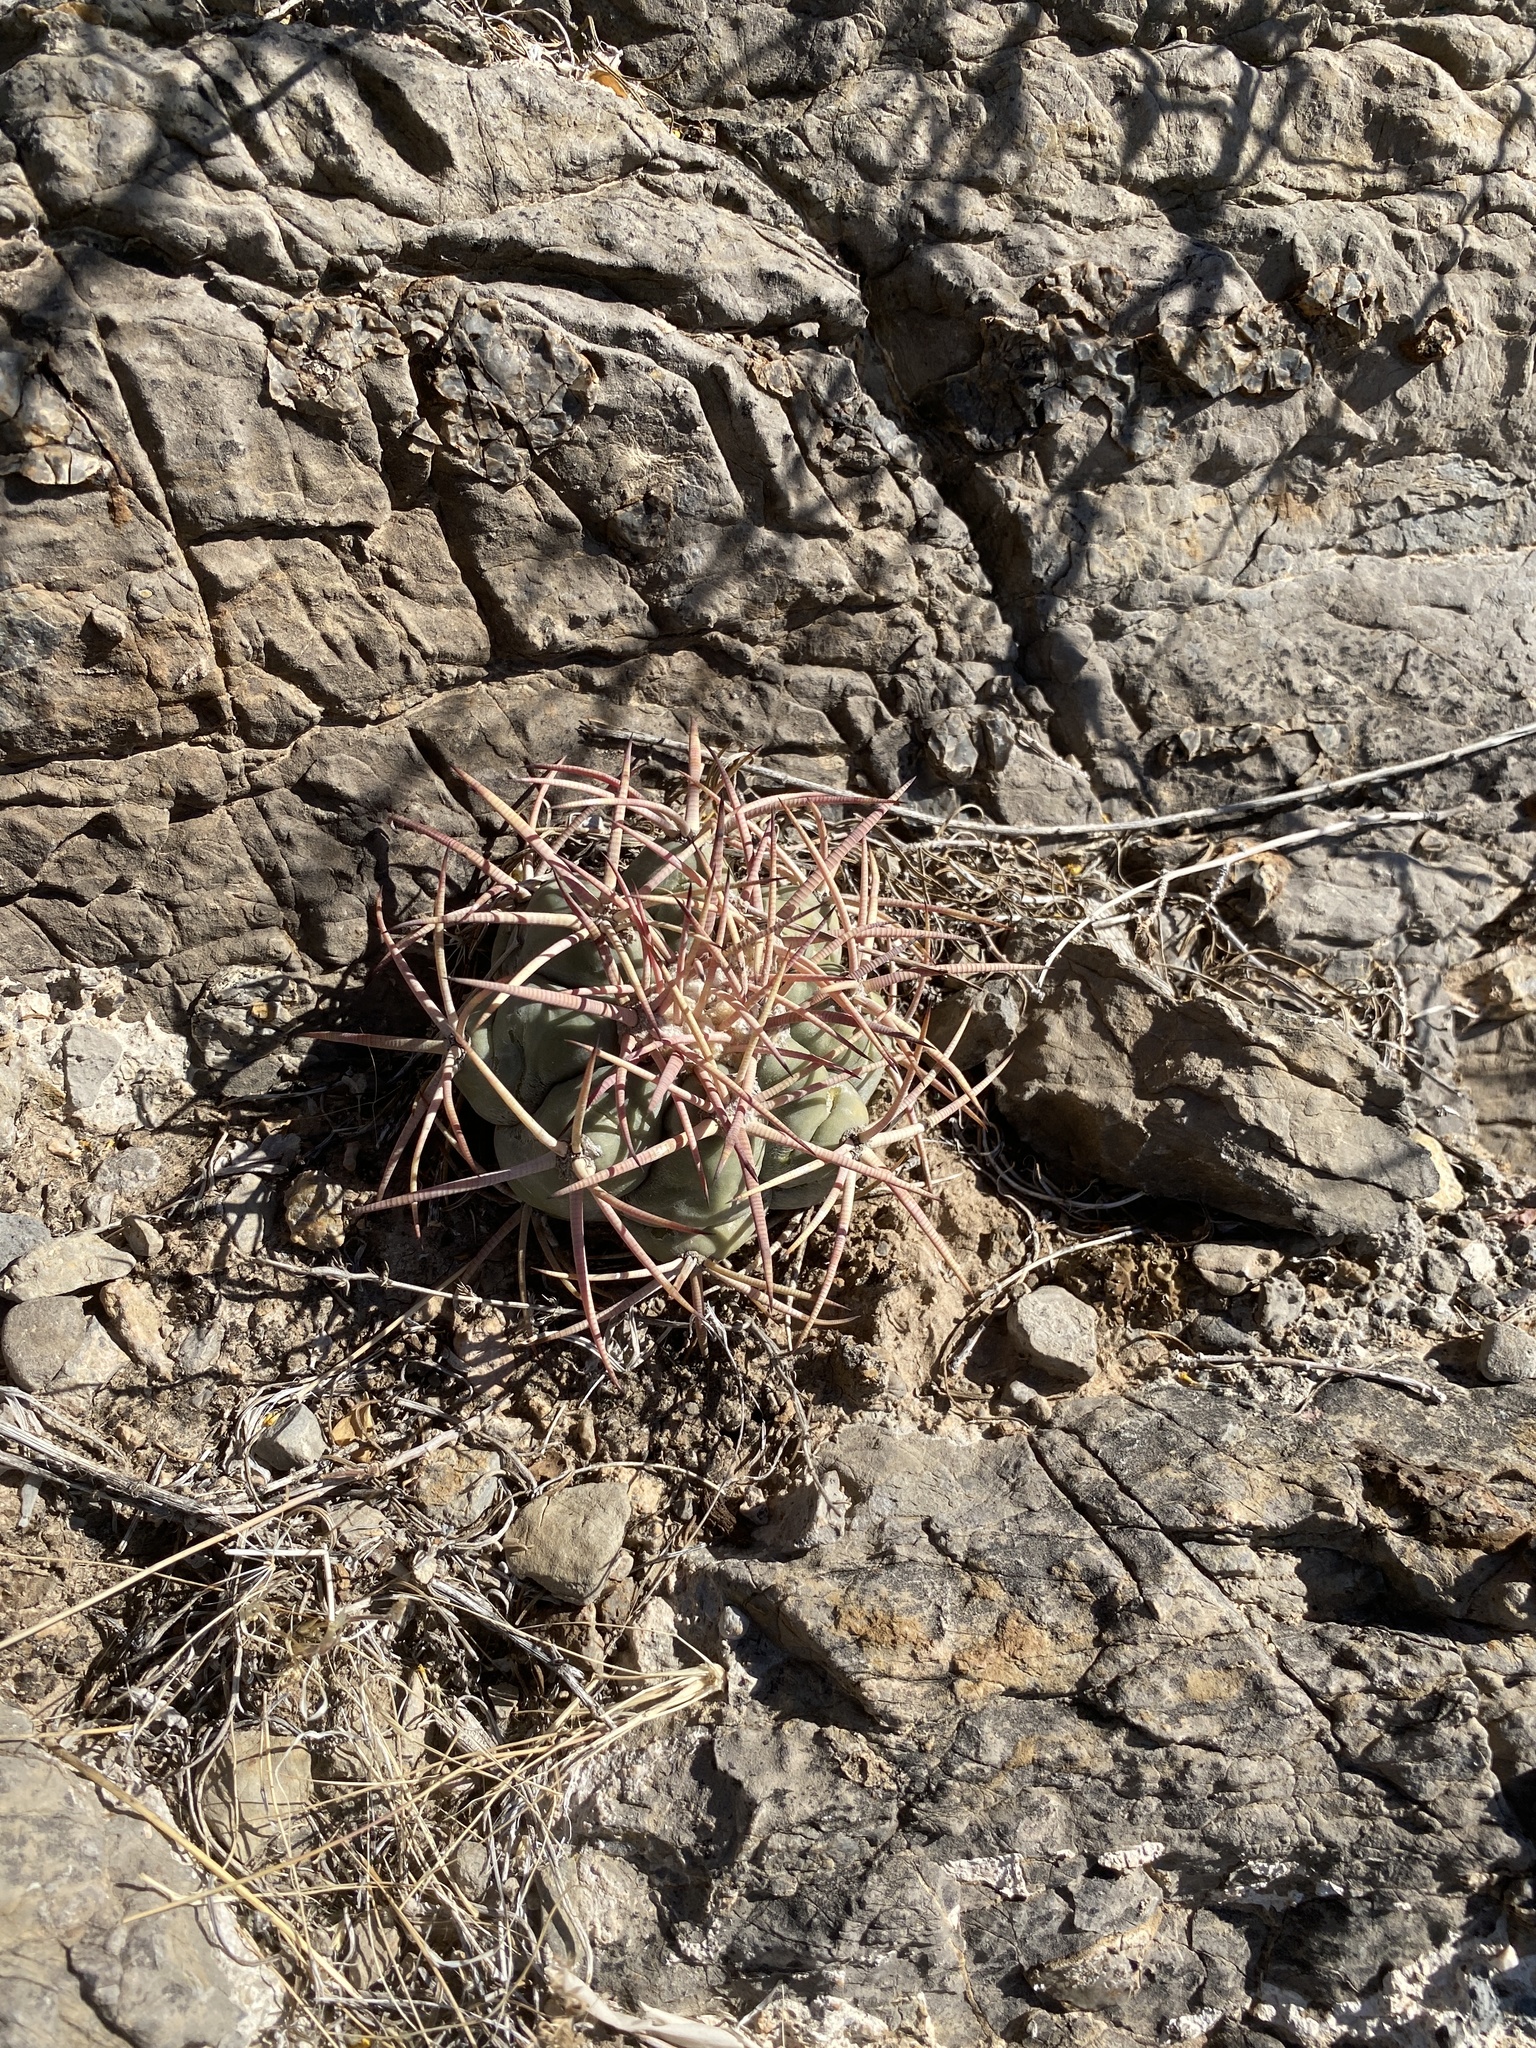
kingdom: Plantae
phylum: Tracheophyta
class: Magnoliopsida
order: Caryophyllales
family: Cactaceae
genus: Echinocactus
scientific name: Echinocactus horizonthalonius
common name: Devilshead
